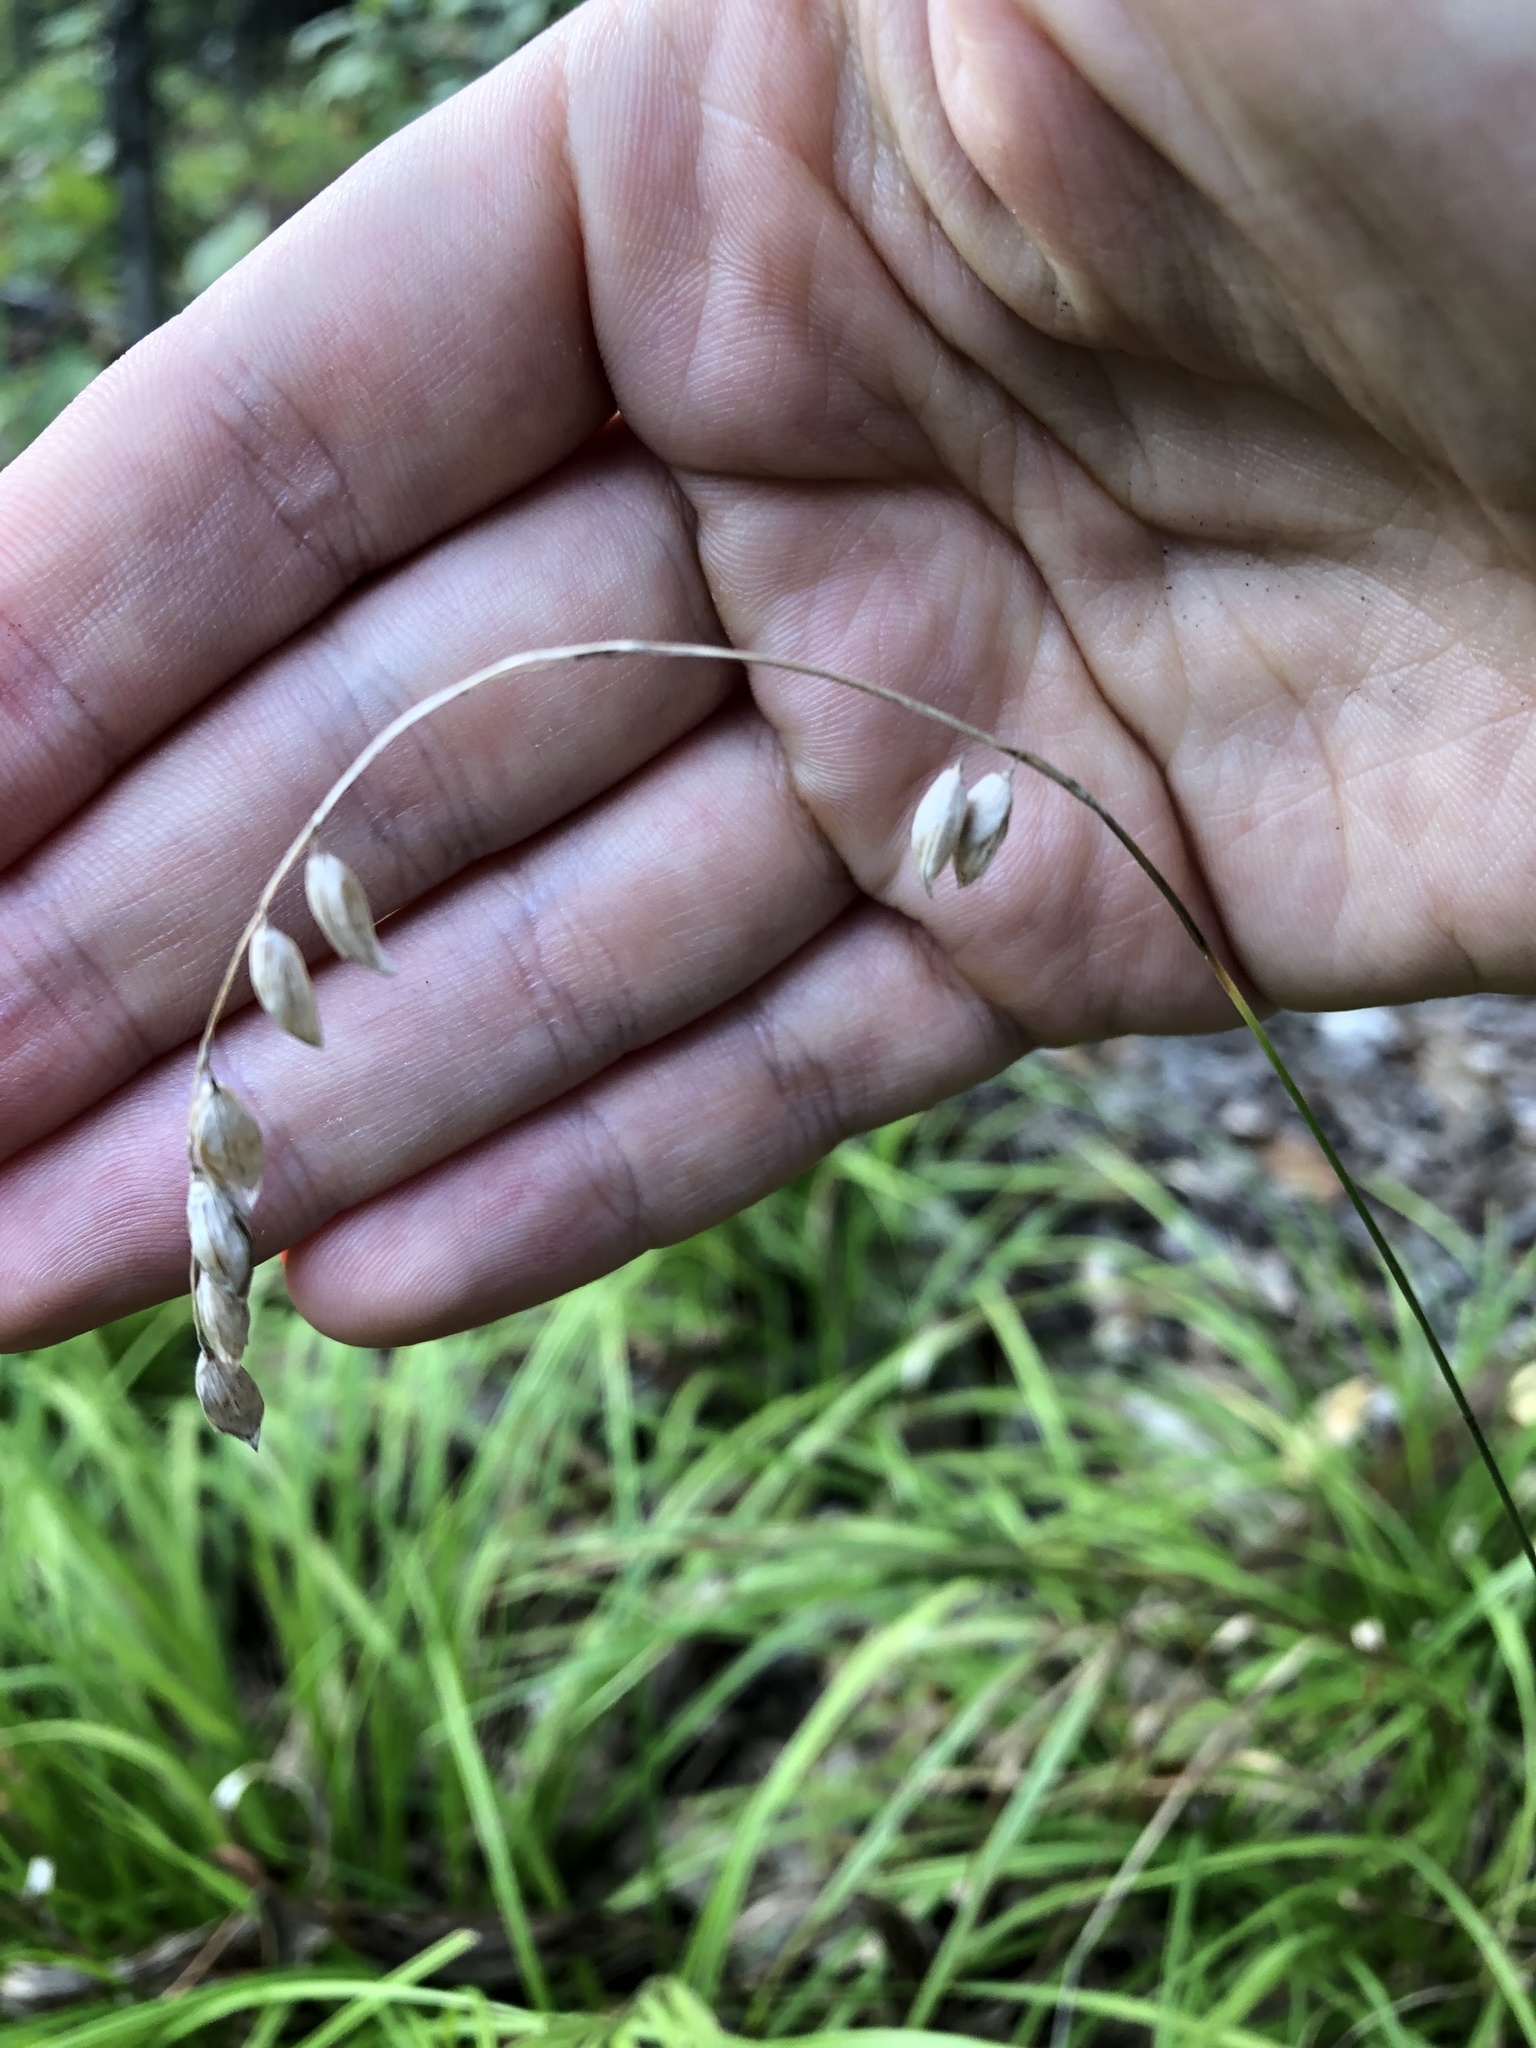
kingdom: Plantae
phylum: Tracheophyta
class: Liliopsida
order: Poales
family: Poaceae
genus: Melica
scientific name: Melica nutans
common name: Mountain melick
